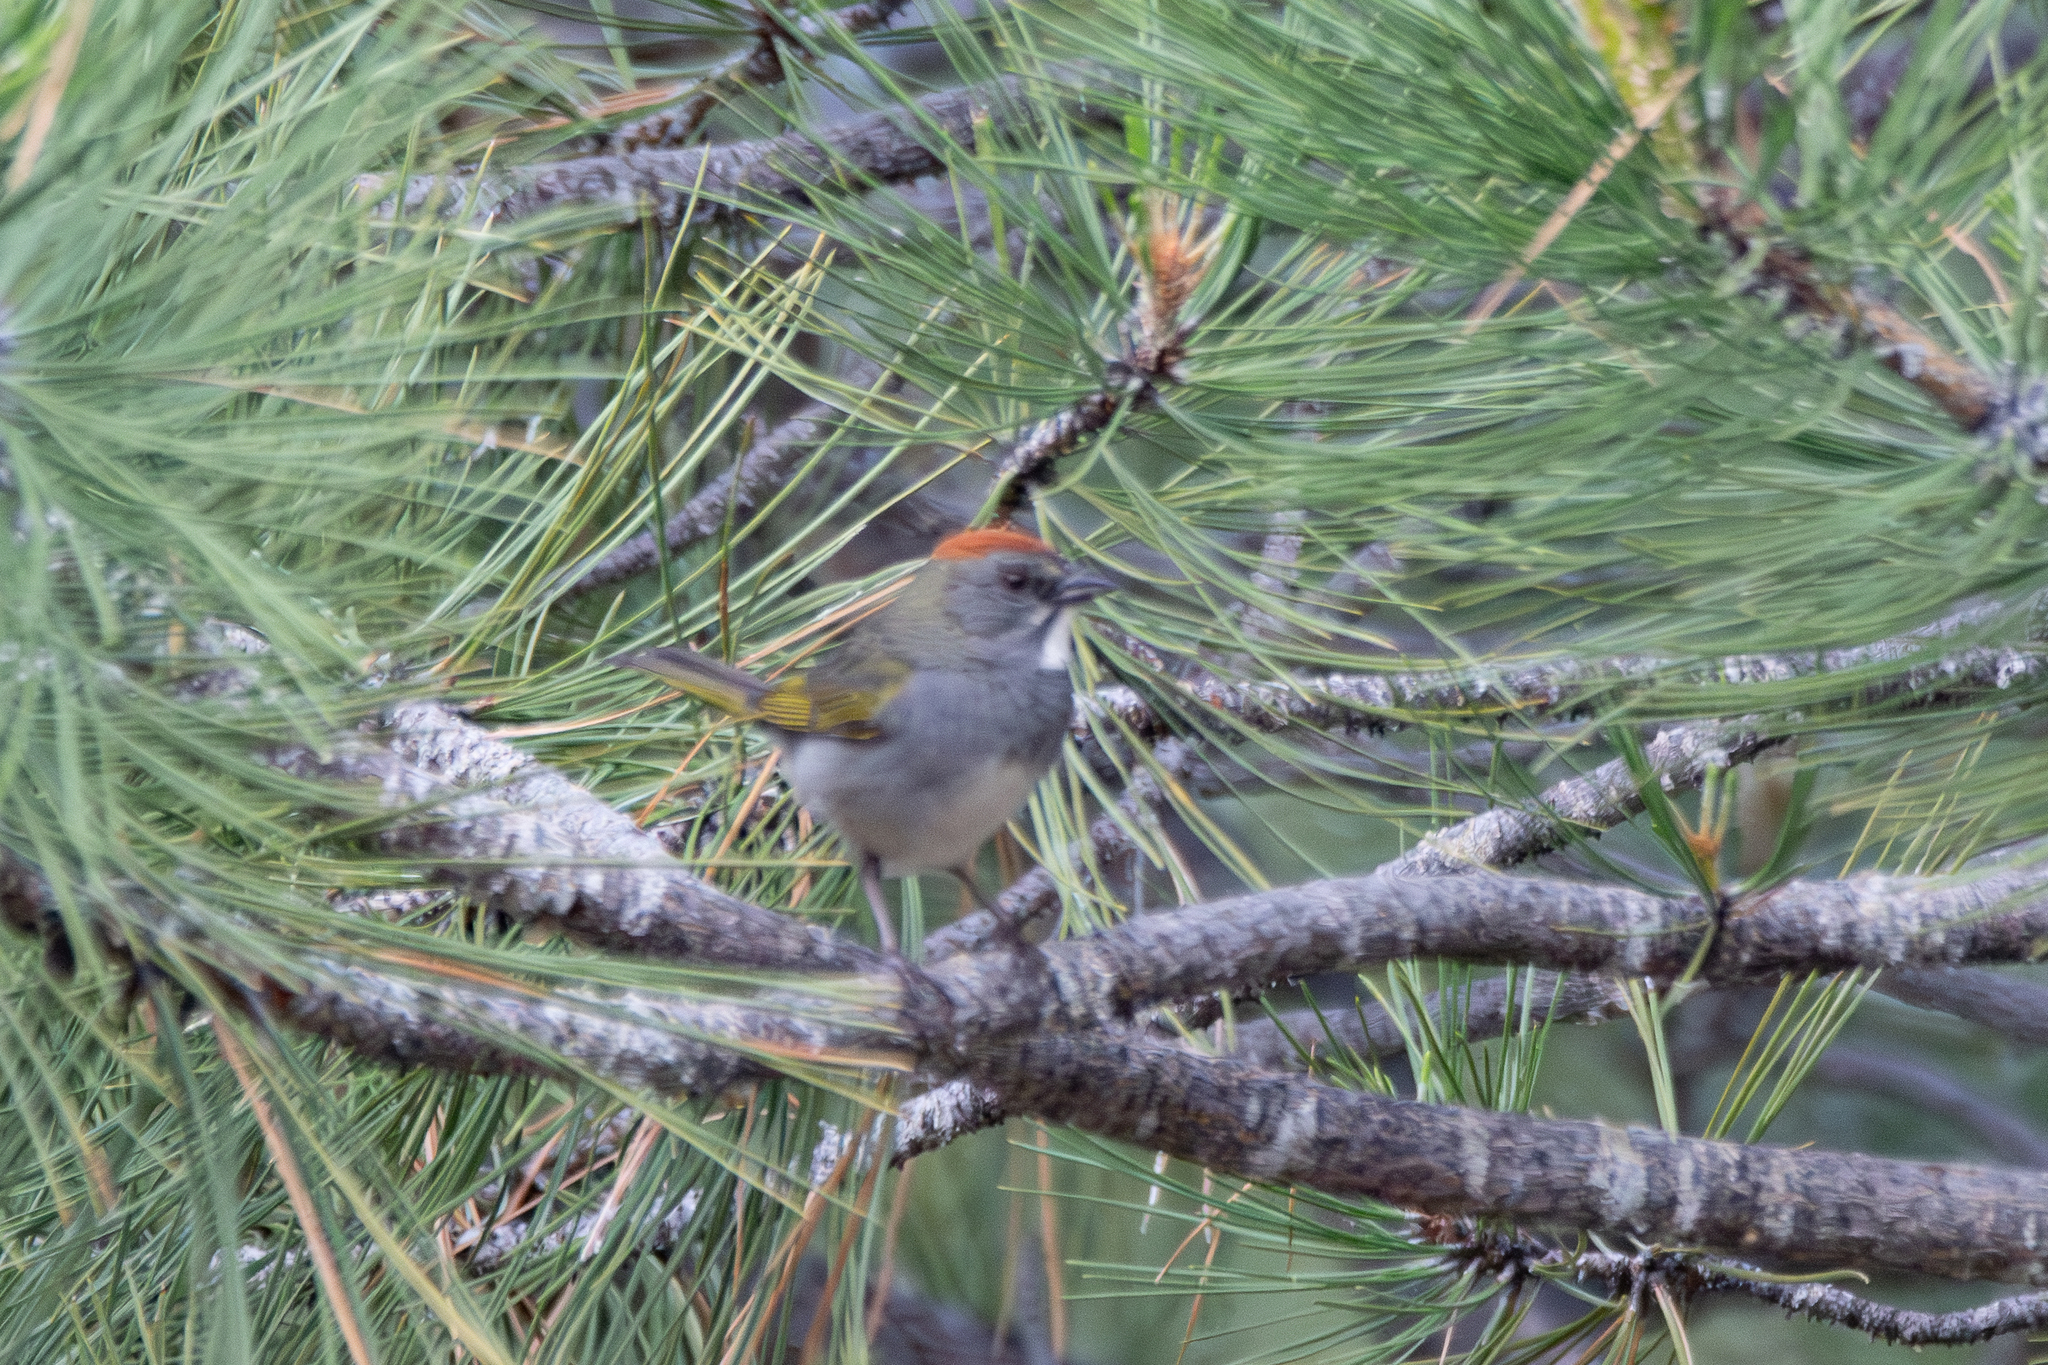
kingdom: Animalia
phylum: Chordata
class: Aves
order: Passeriformes
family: Passerellidae
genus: Pipilo
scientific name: Pipilo chlorurus
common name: Green-tailed towhee
